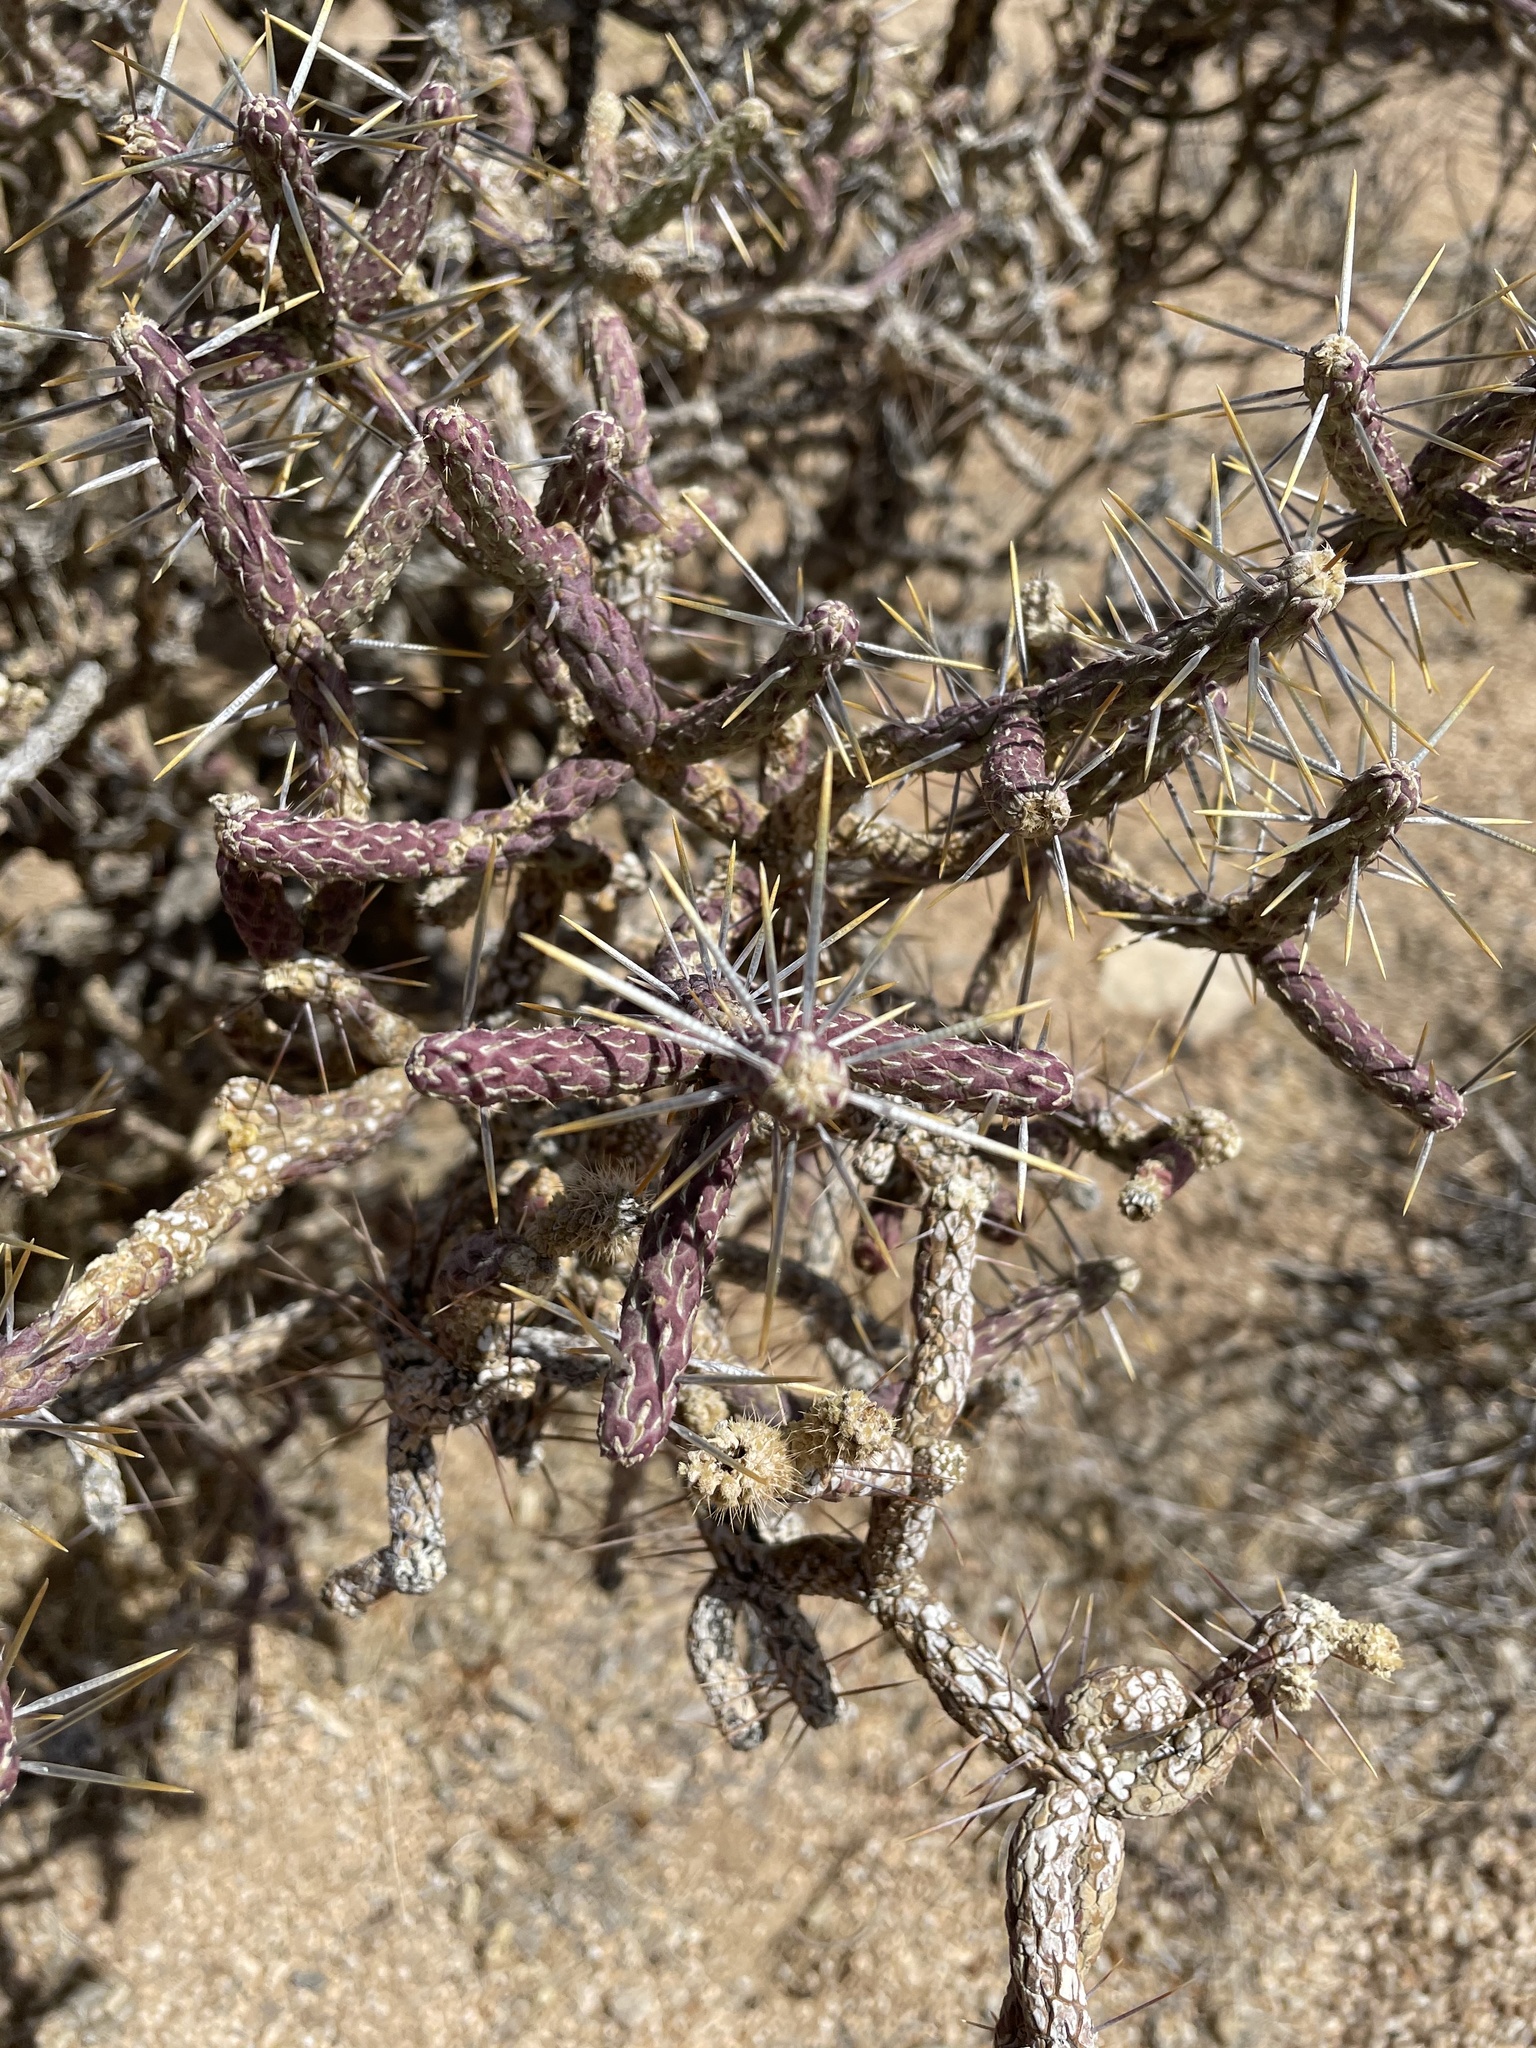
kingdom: Plantae
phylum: Tracheophyta
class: Magnoliopsida
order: Caryophyllales
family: Cactaceae
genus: Cylindropuntia
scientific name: Cylindropuntia ramosissima
